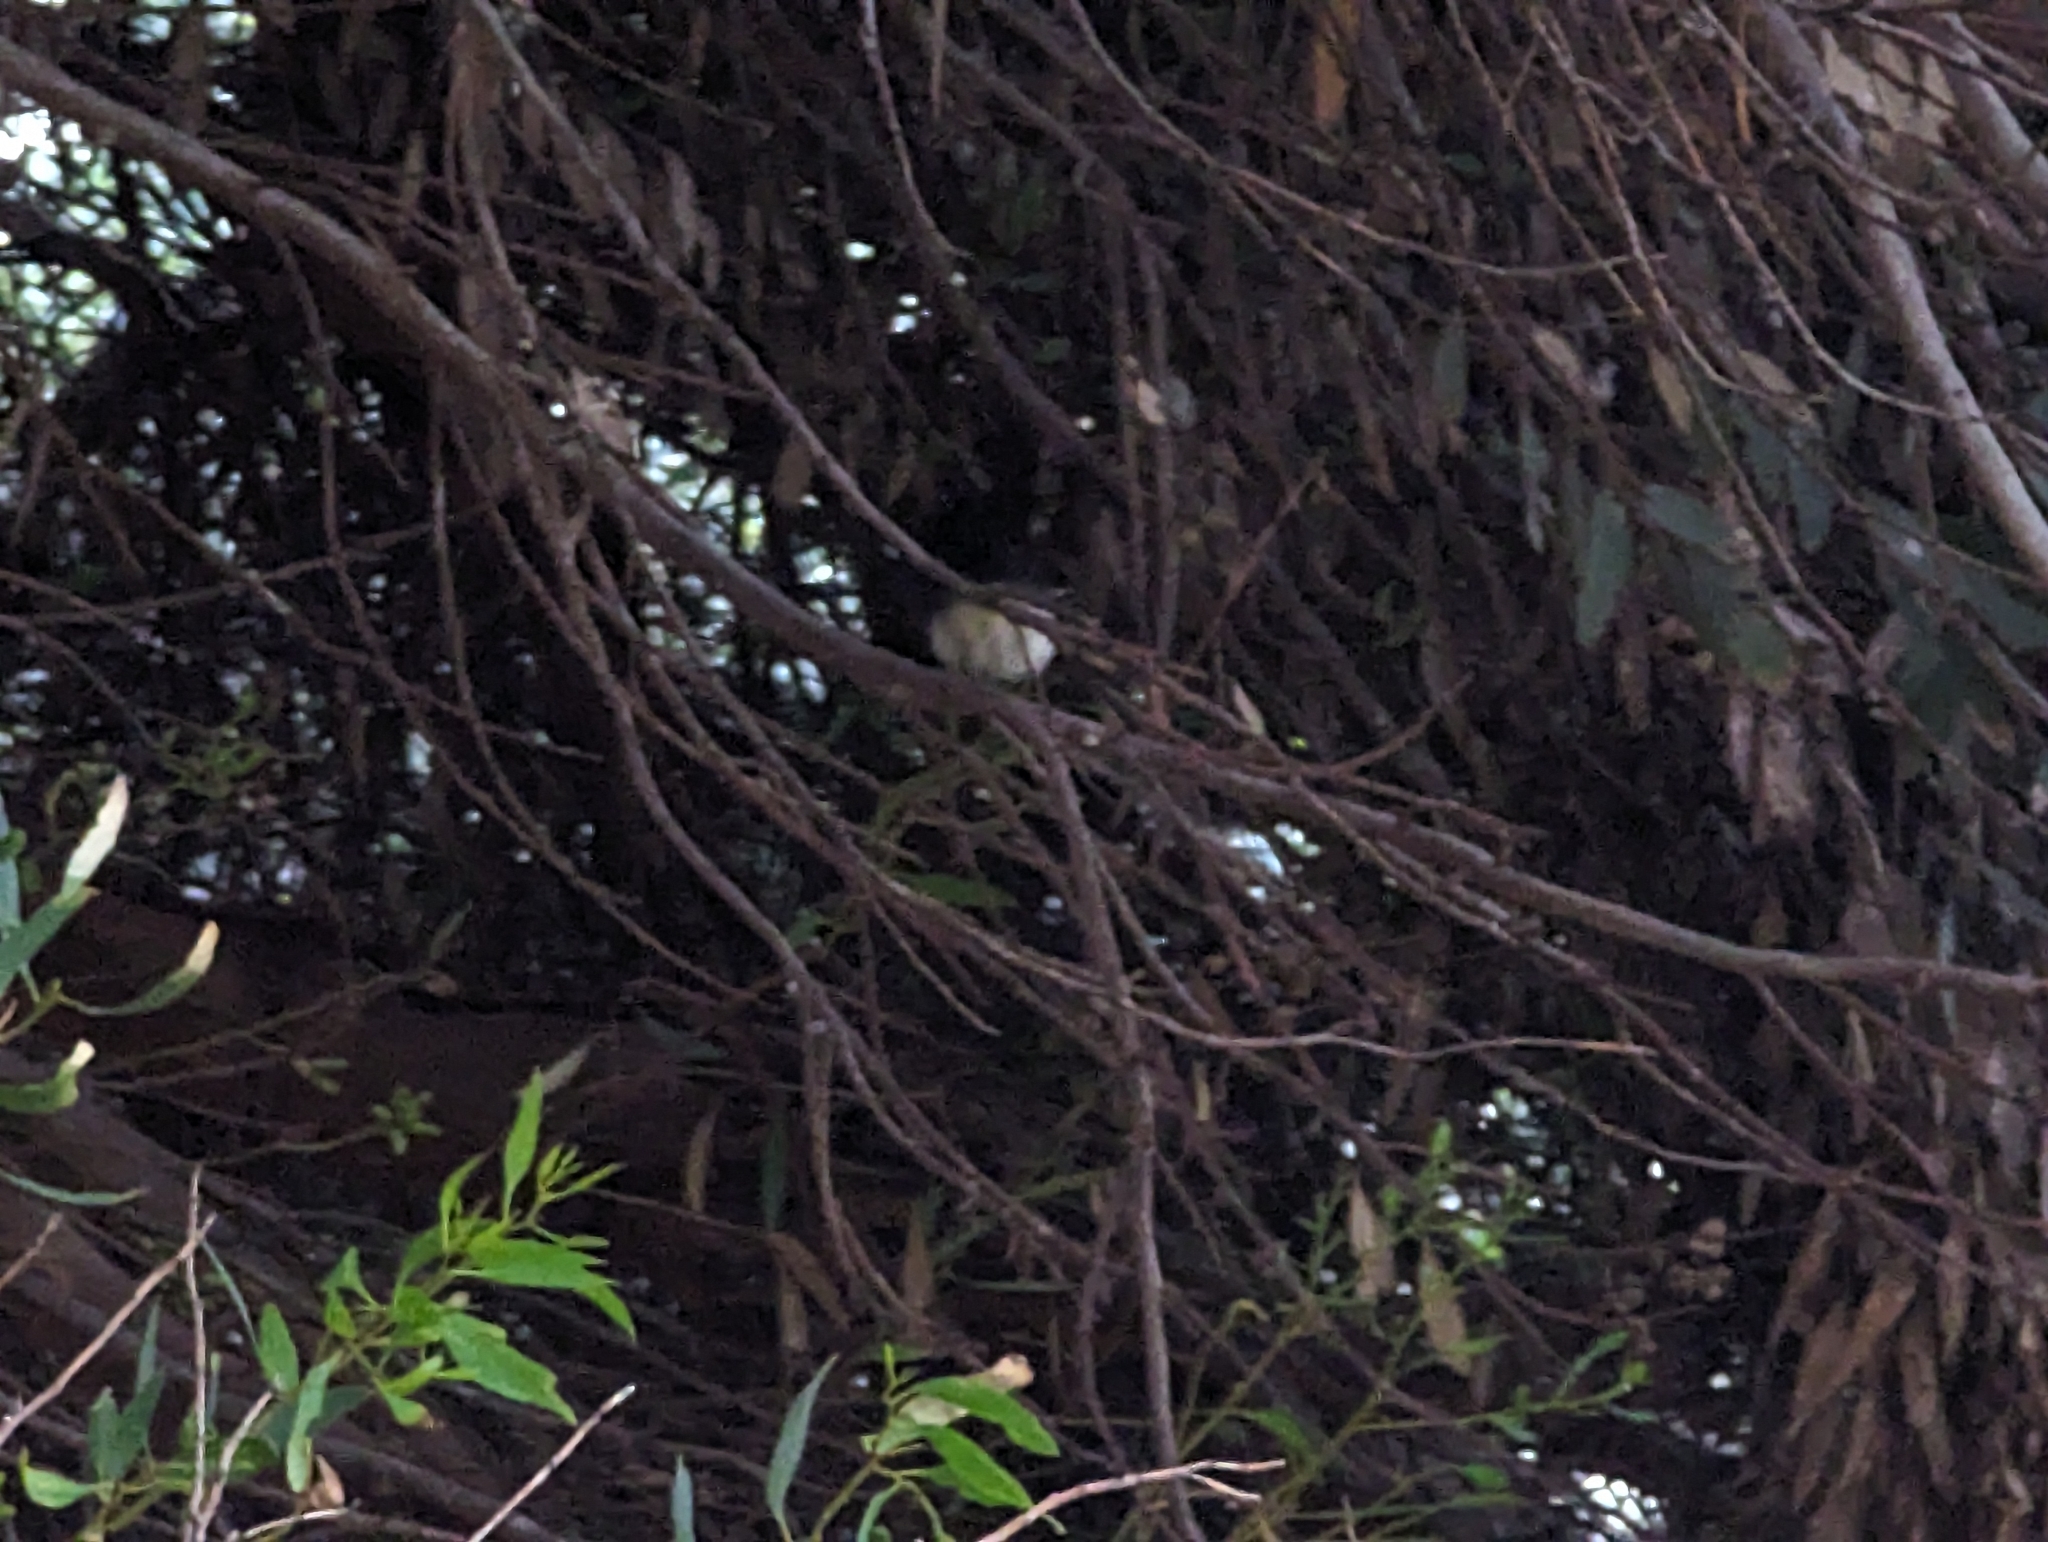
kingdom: Animalia
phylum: Chordata
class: Aves
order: Passeriformes
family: Rhipiduridae
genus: Rhipidura
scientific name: Rhipidura leucophrys
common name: Willie wagtail
